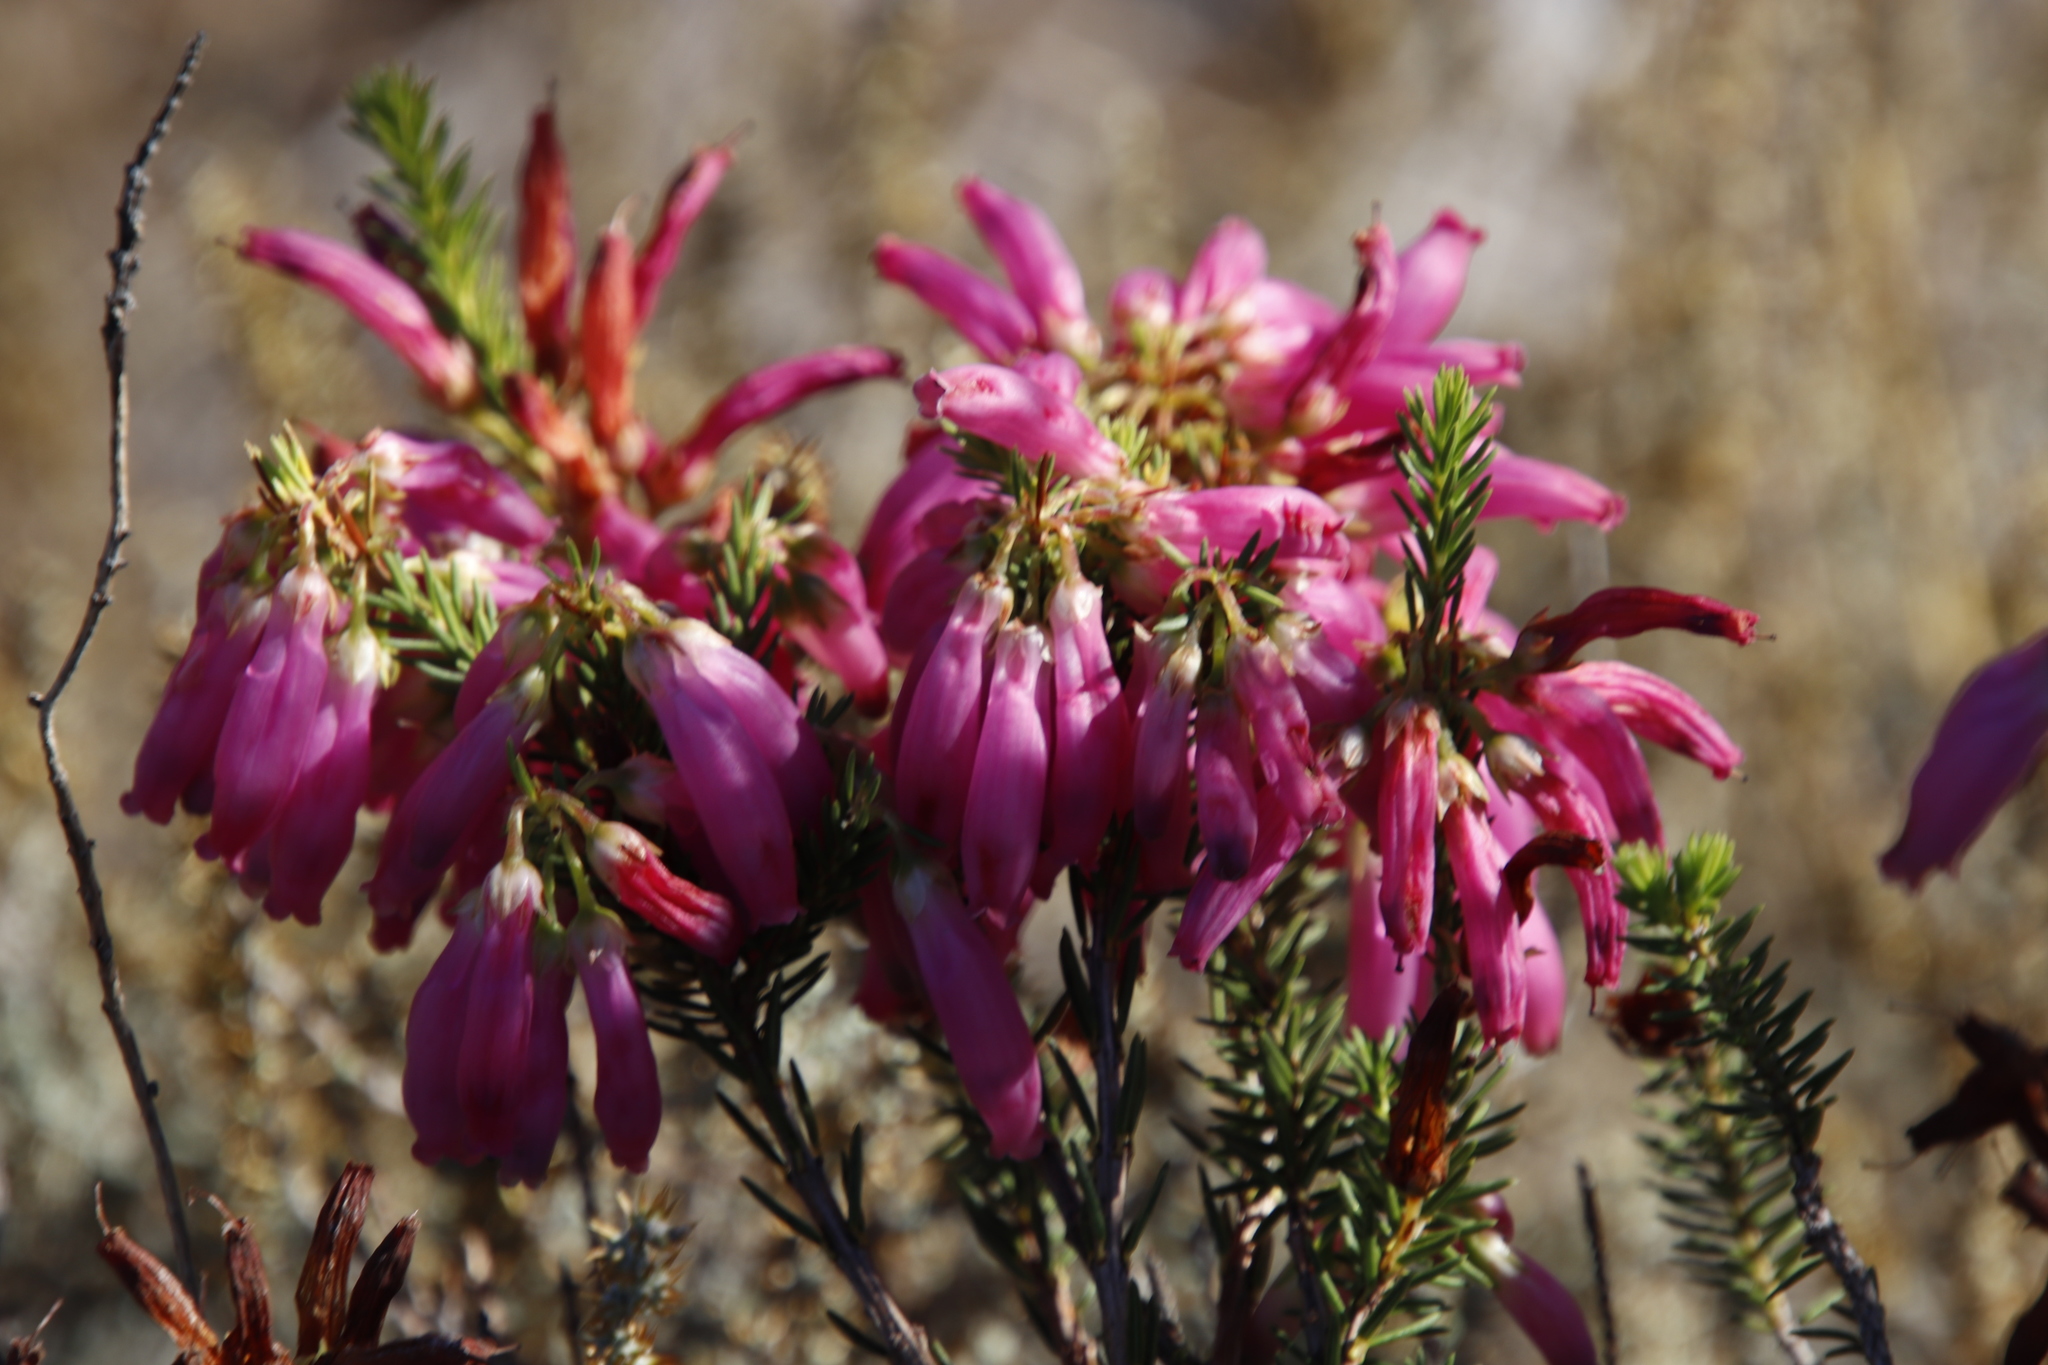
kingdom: Plantae
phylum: Tracheophyta
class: Magnoliopsida
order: Ericales
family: Ericaceae
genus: Erica
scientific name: Erica mammosa
